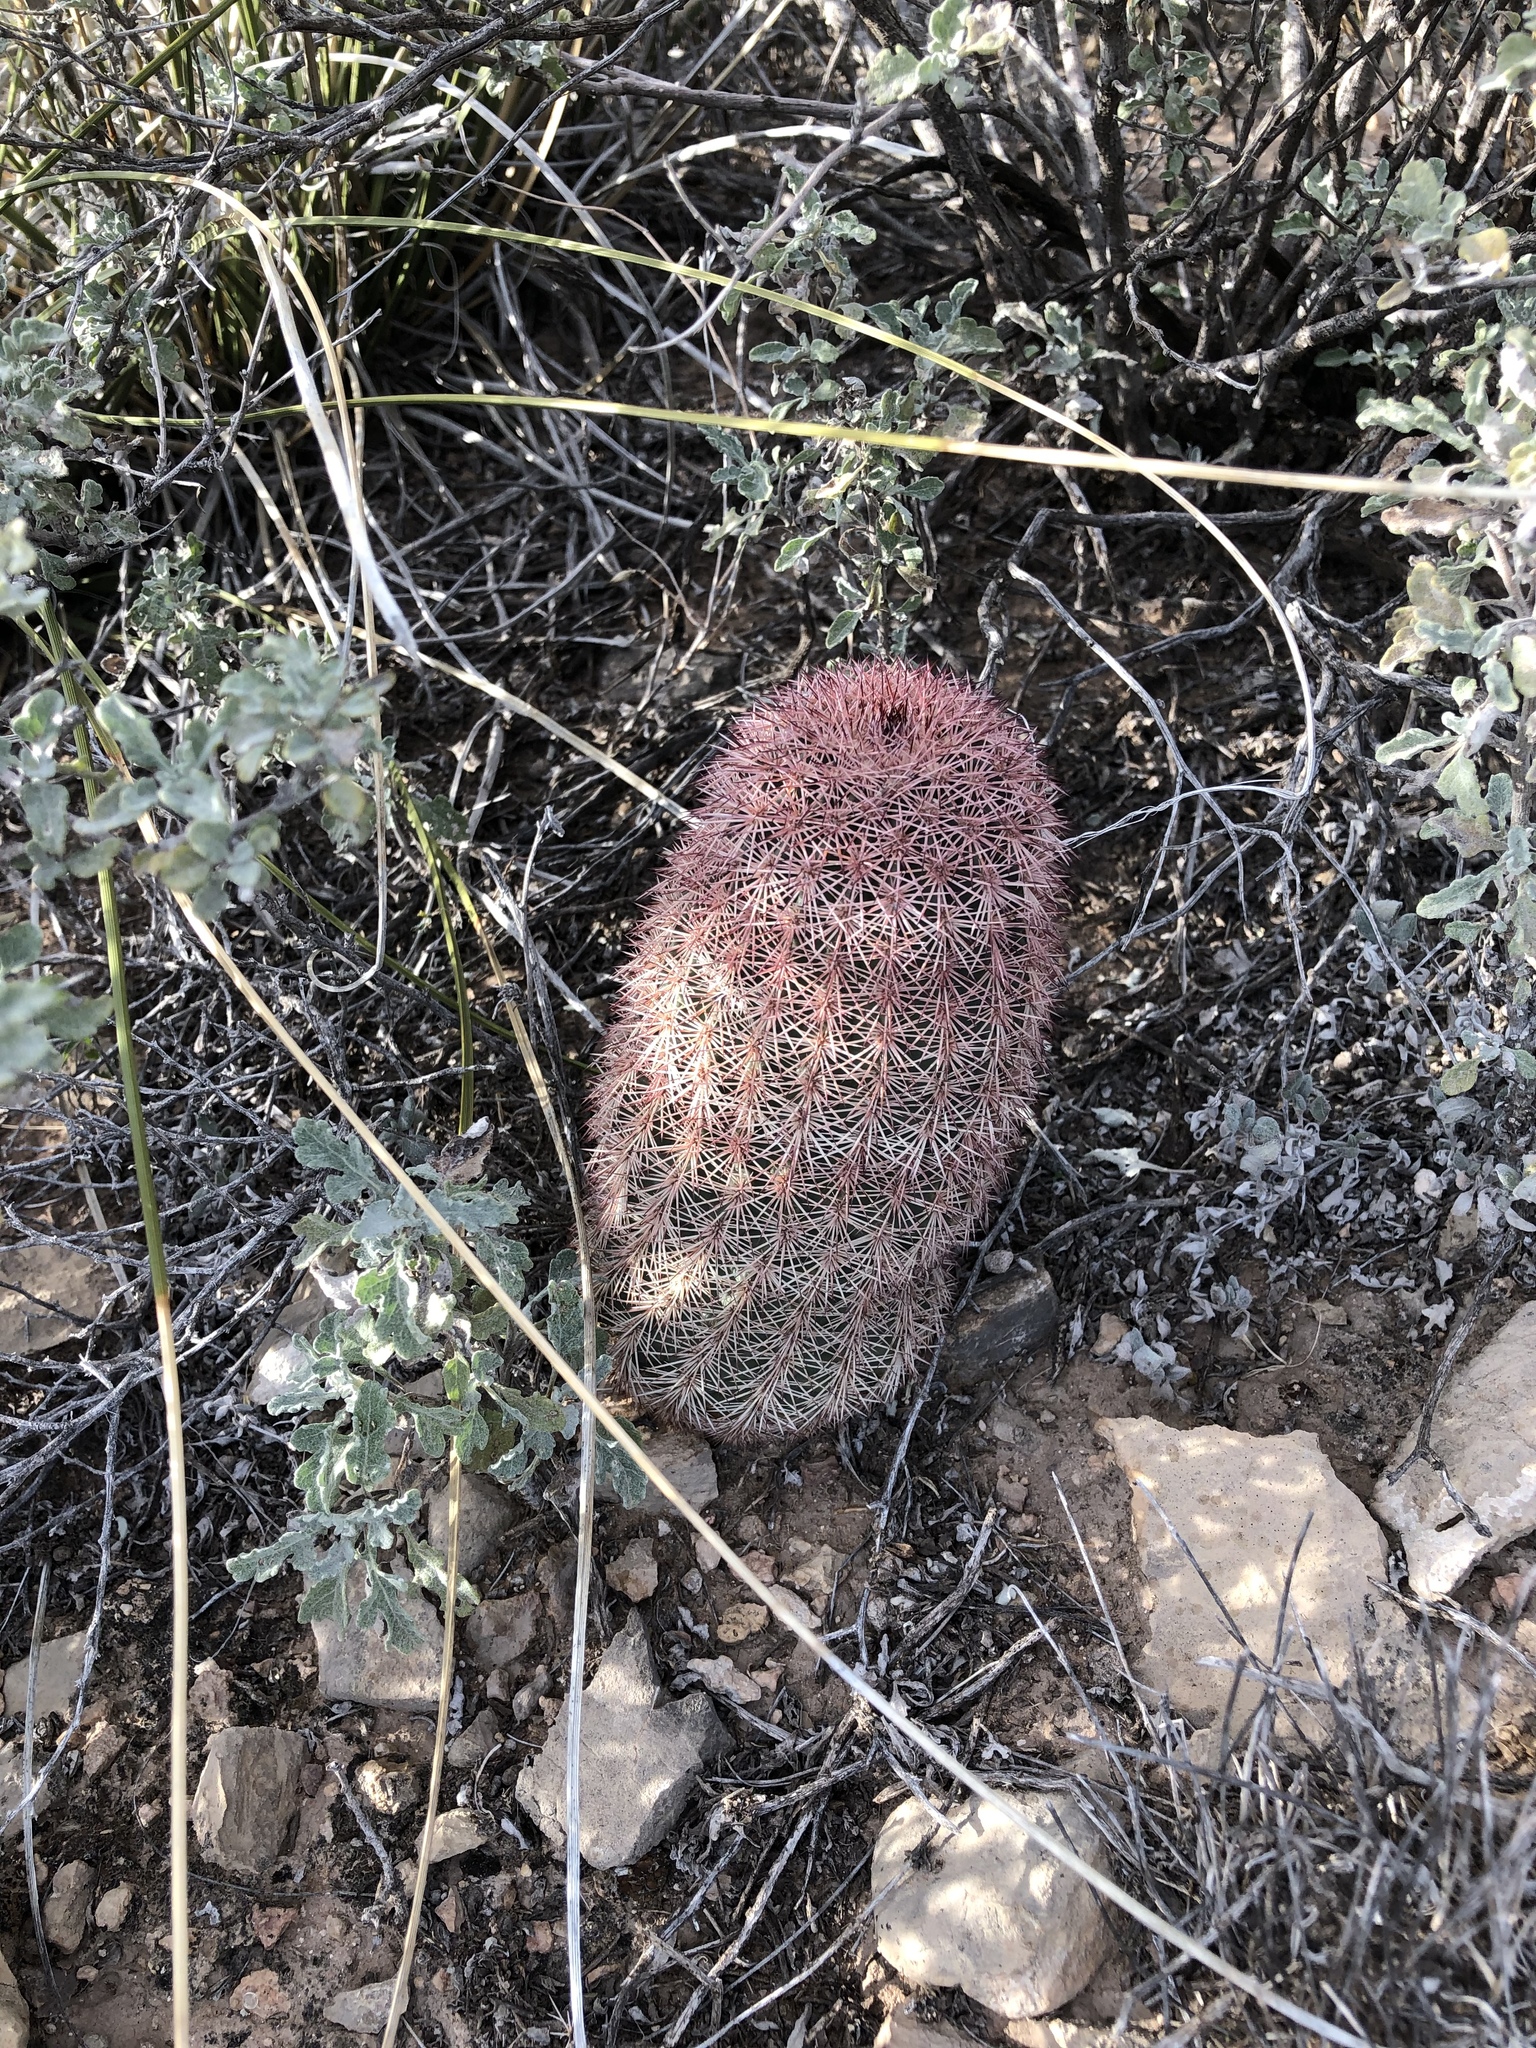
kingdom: Plantae
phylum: Tracheophyta
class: Magnoliopsida
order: Caryophyllales
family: Cactaceae
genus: Echinocereus
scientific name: Echinocereus dasyacanthus
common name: Spiny hedgehog cactus
